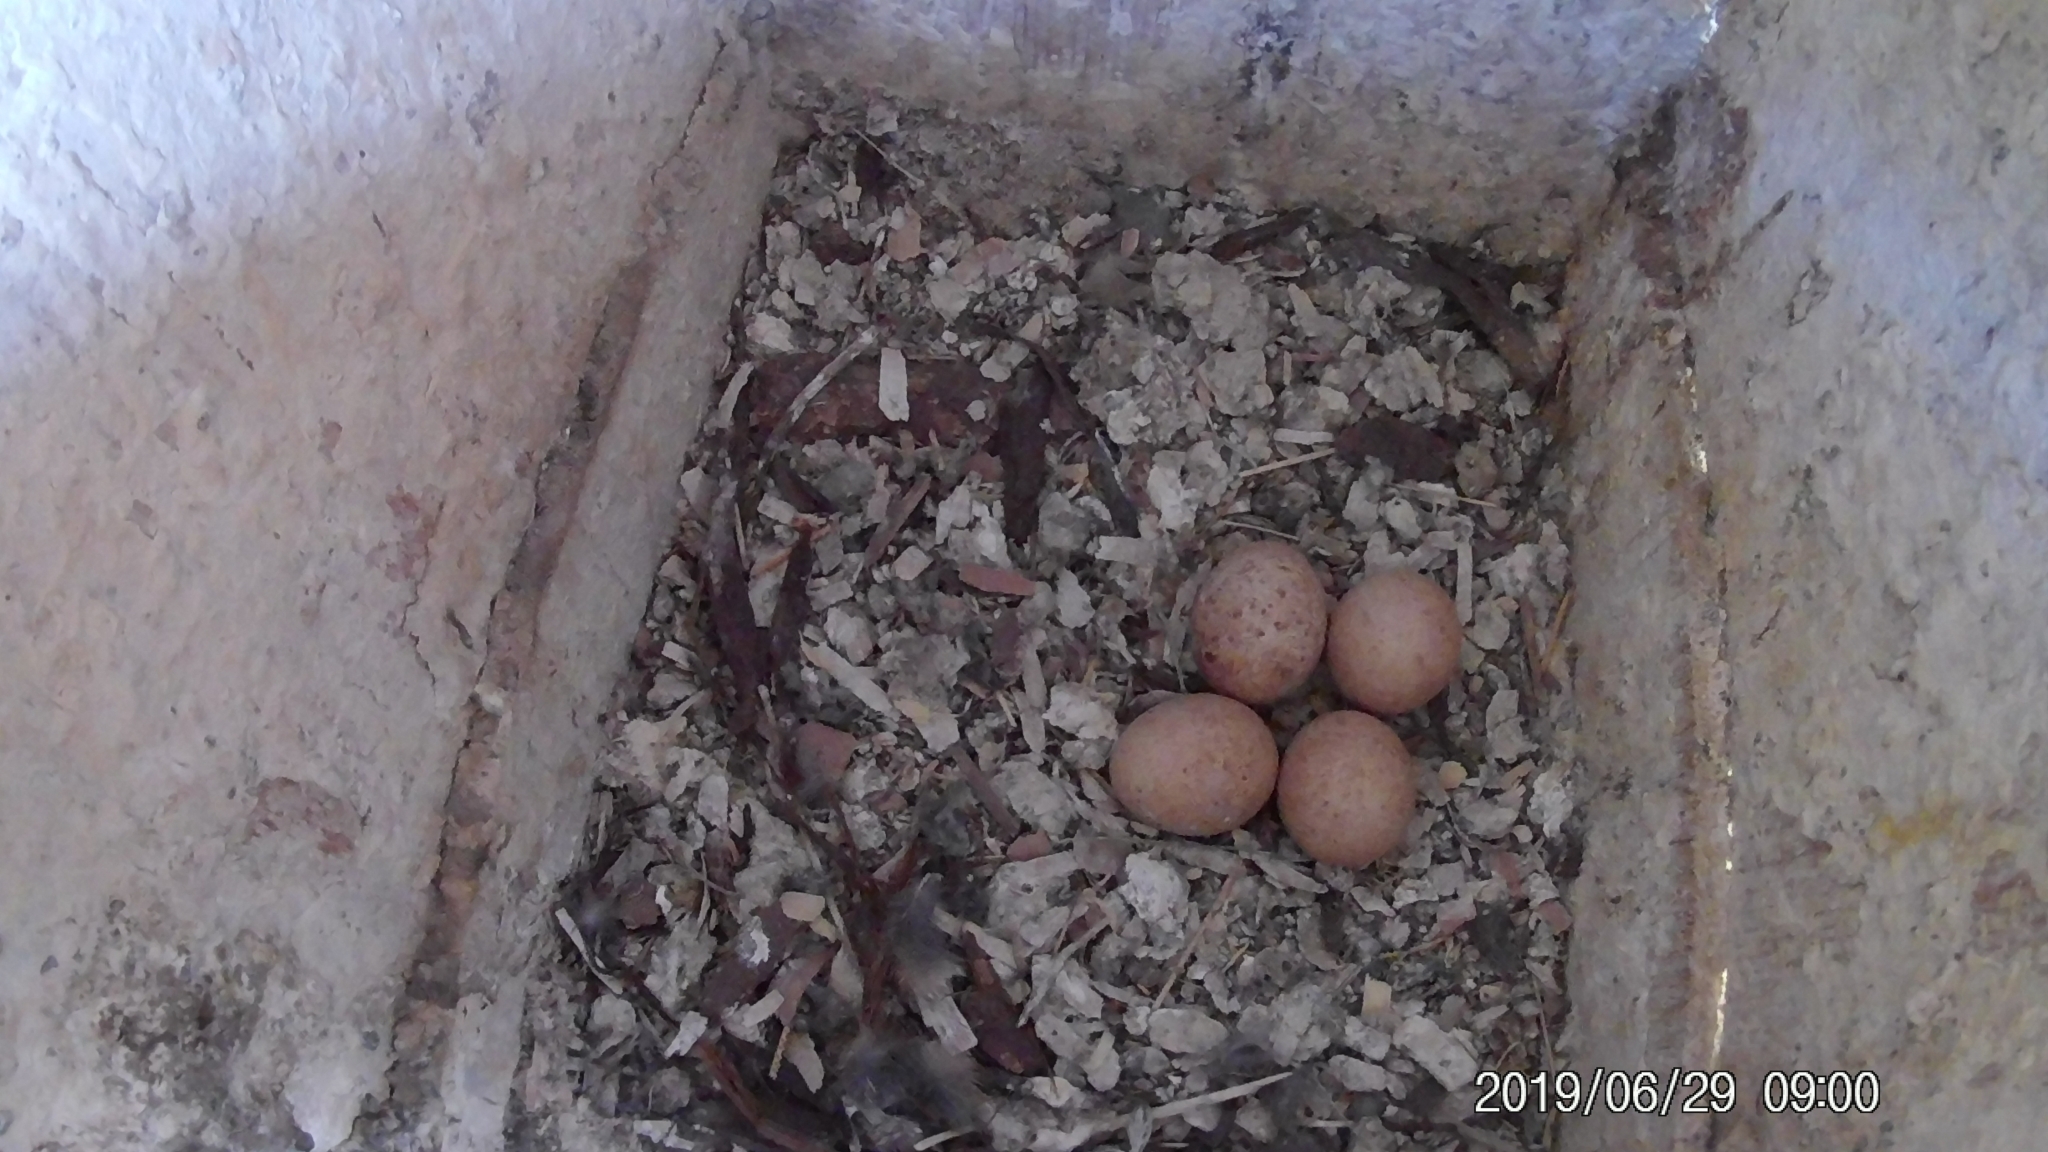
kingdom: Animalia
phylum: Chordata
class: Aves
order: Falconiformes
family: Falconidae
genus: Falco
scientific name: Falco sparverius
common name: American kestrel
